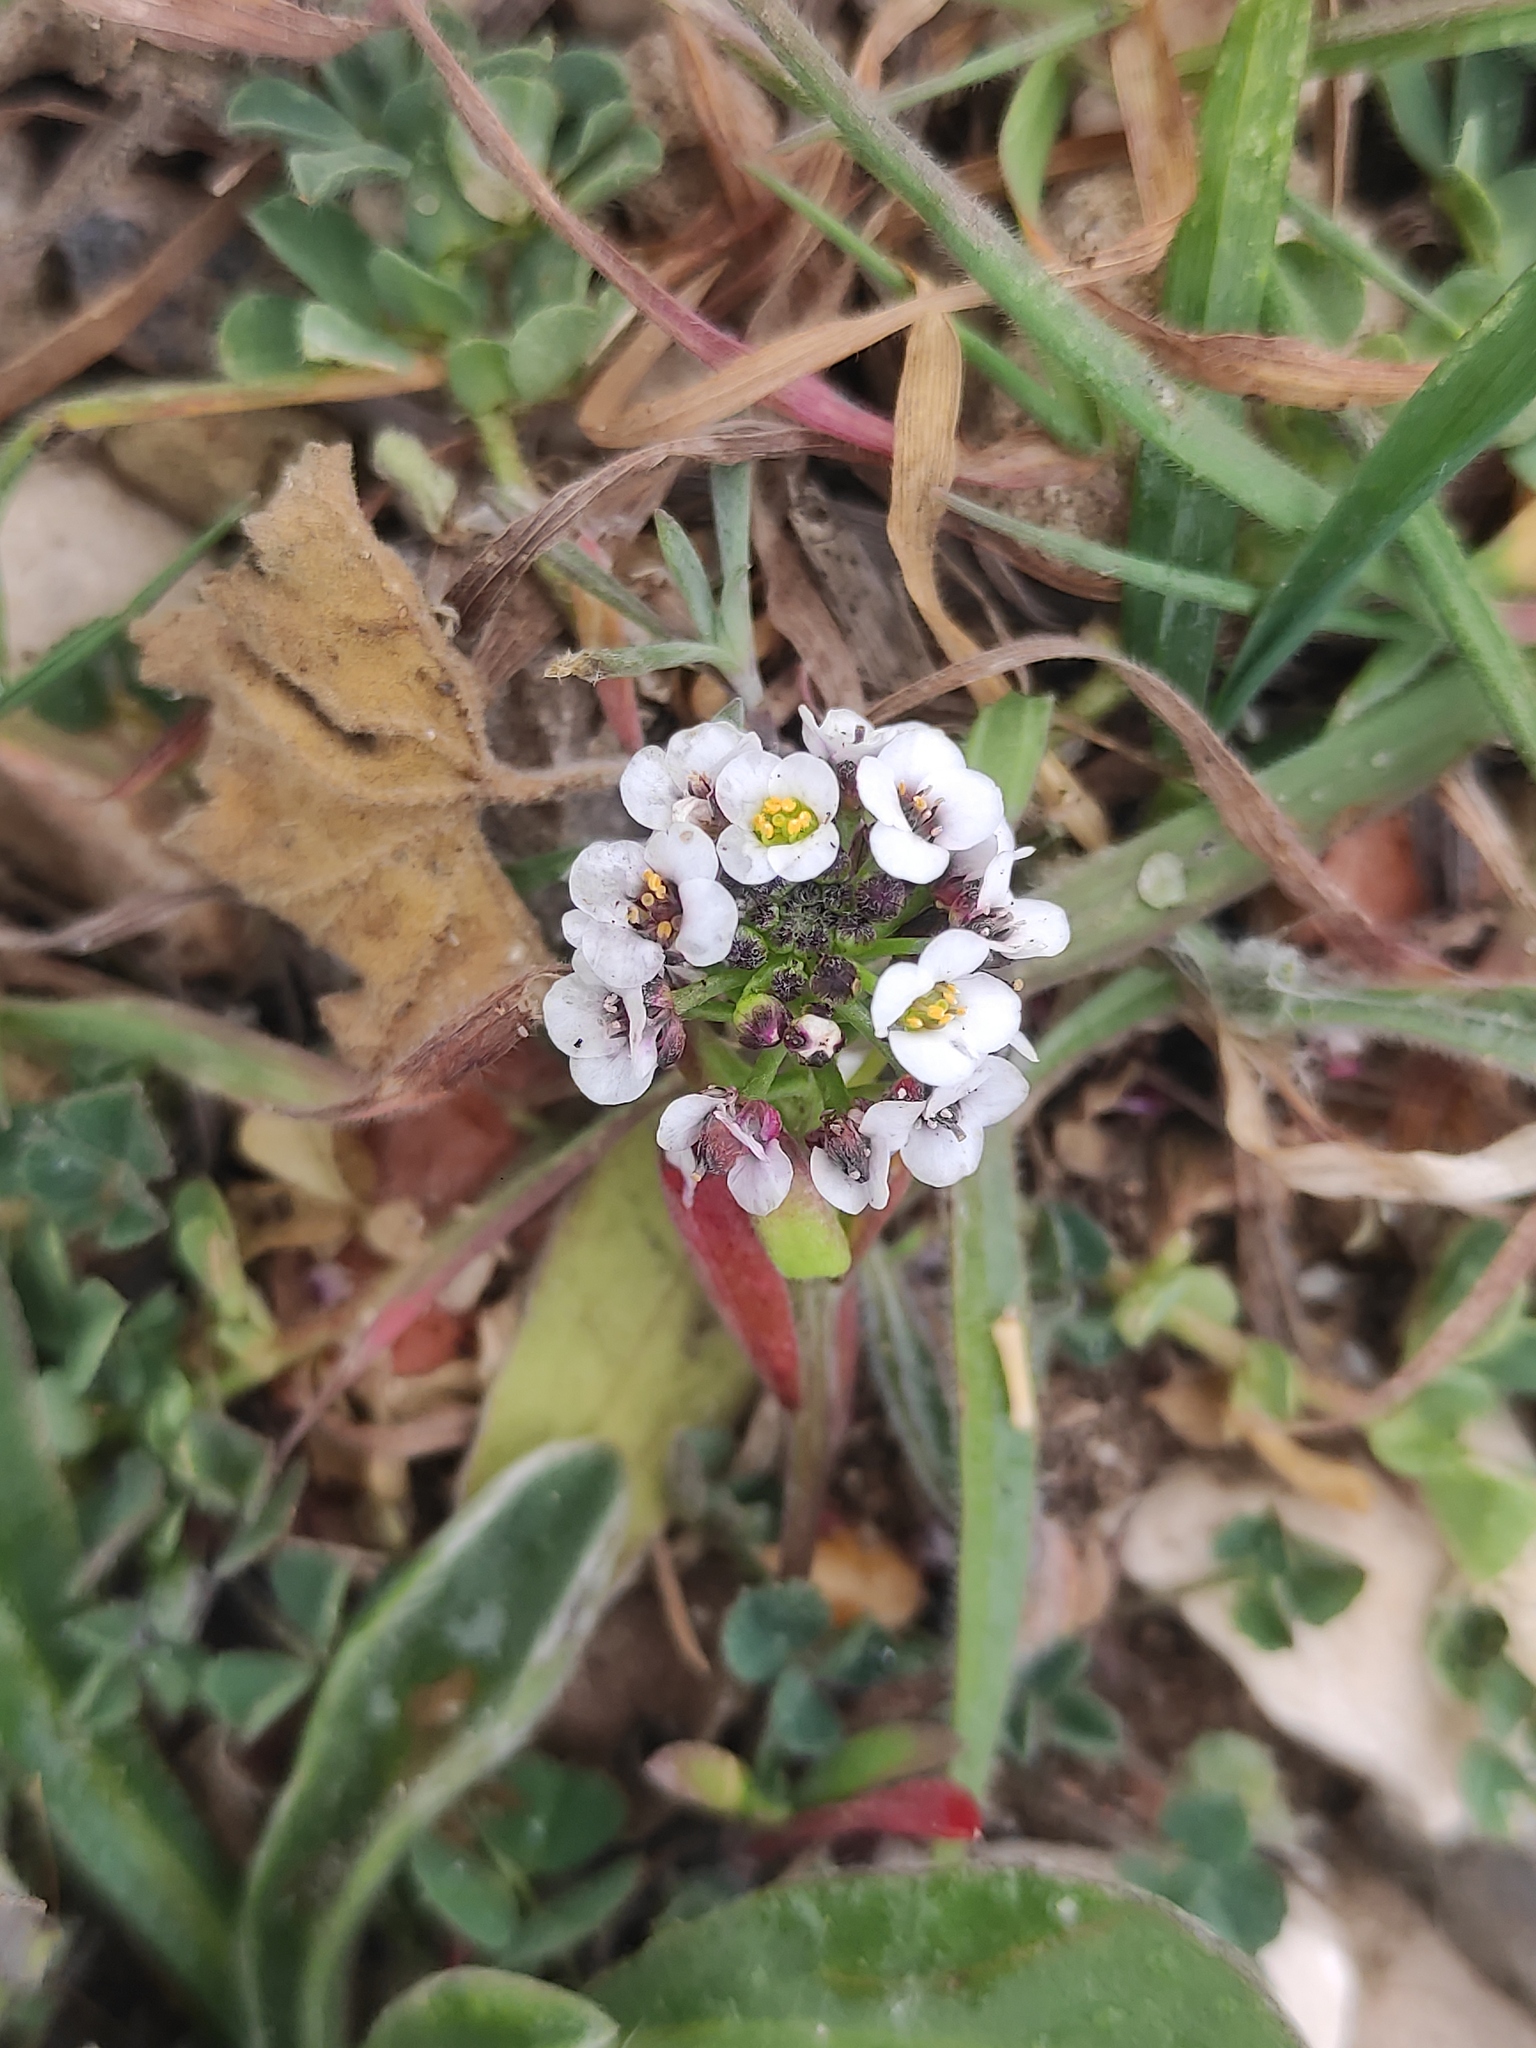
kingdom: Plantae
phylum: Tracheophyta
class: Magnoliopsida
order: Brassicales
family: Brassicaceae
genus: Lobularia
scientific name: Lobularia maritima
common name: Sweet alison
